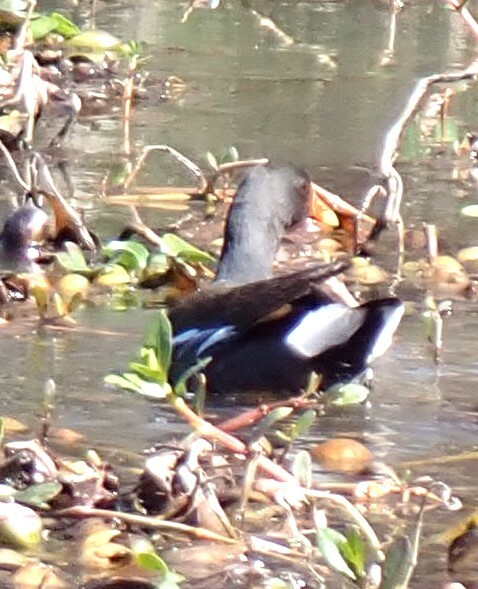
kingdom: Animalia
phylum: Chordata
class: Aves
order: Gruiformes
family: Rallidae
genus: Gallinula
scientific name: Gallinula chloropus
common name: Common moorhen
